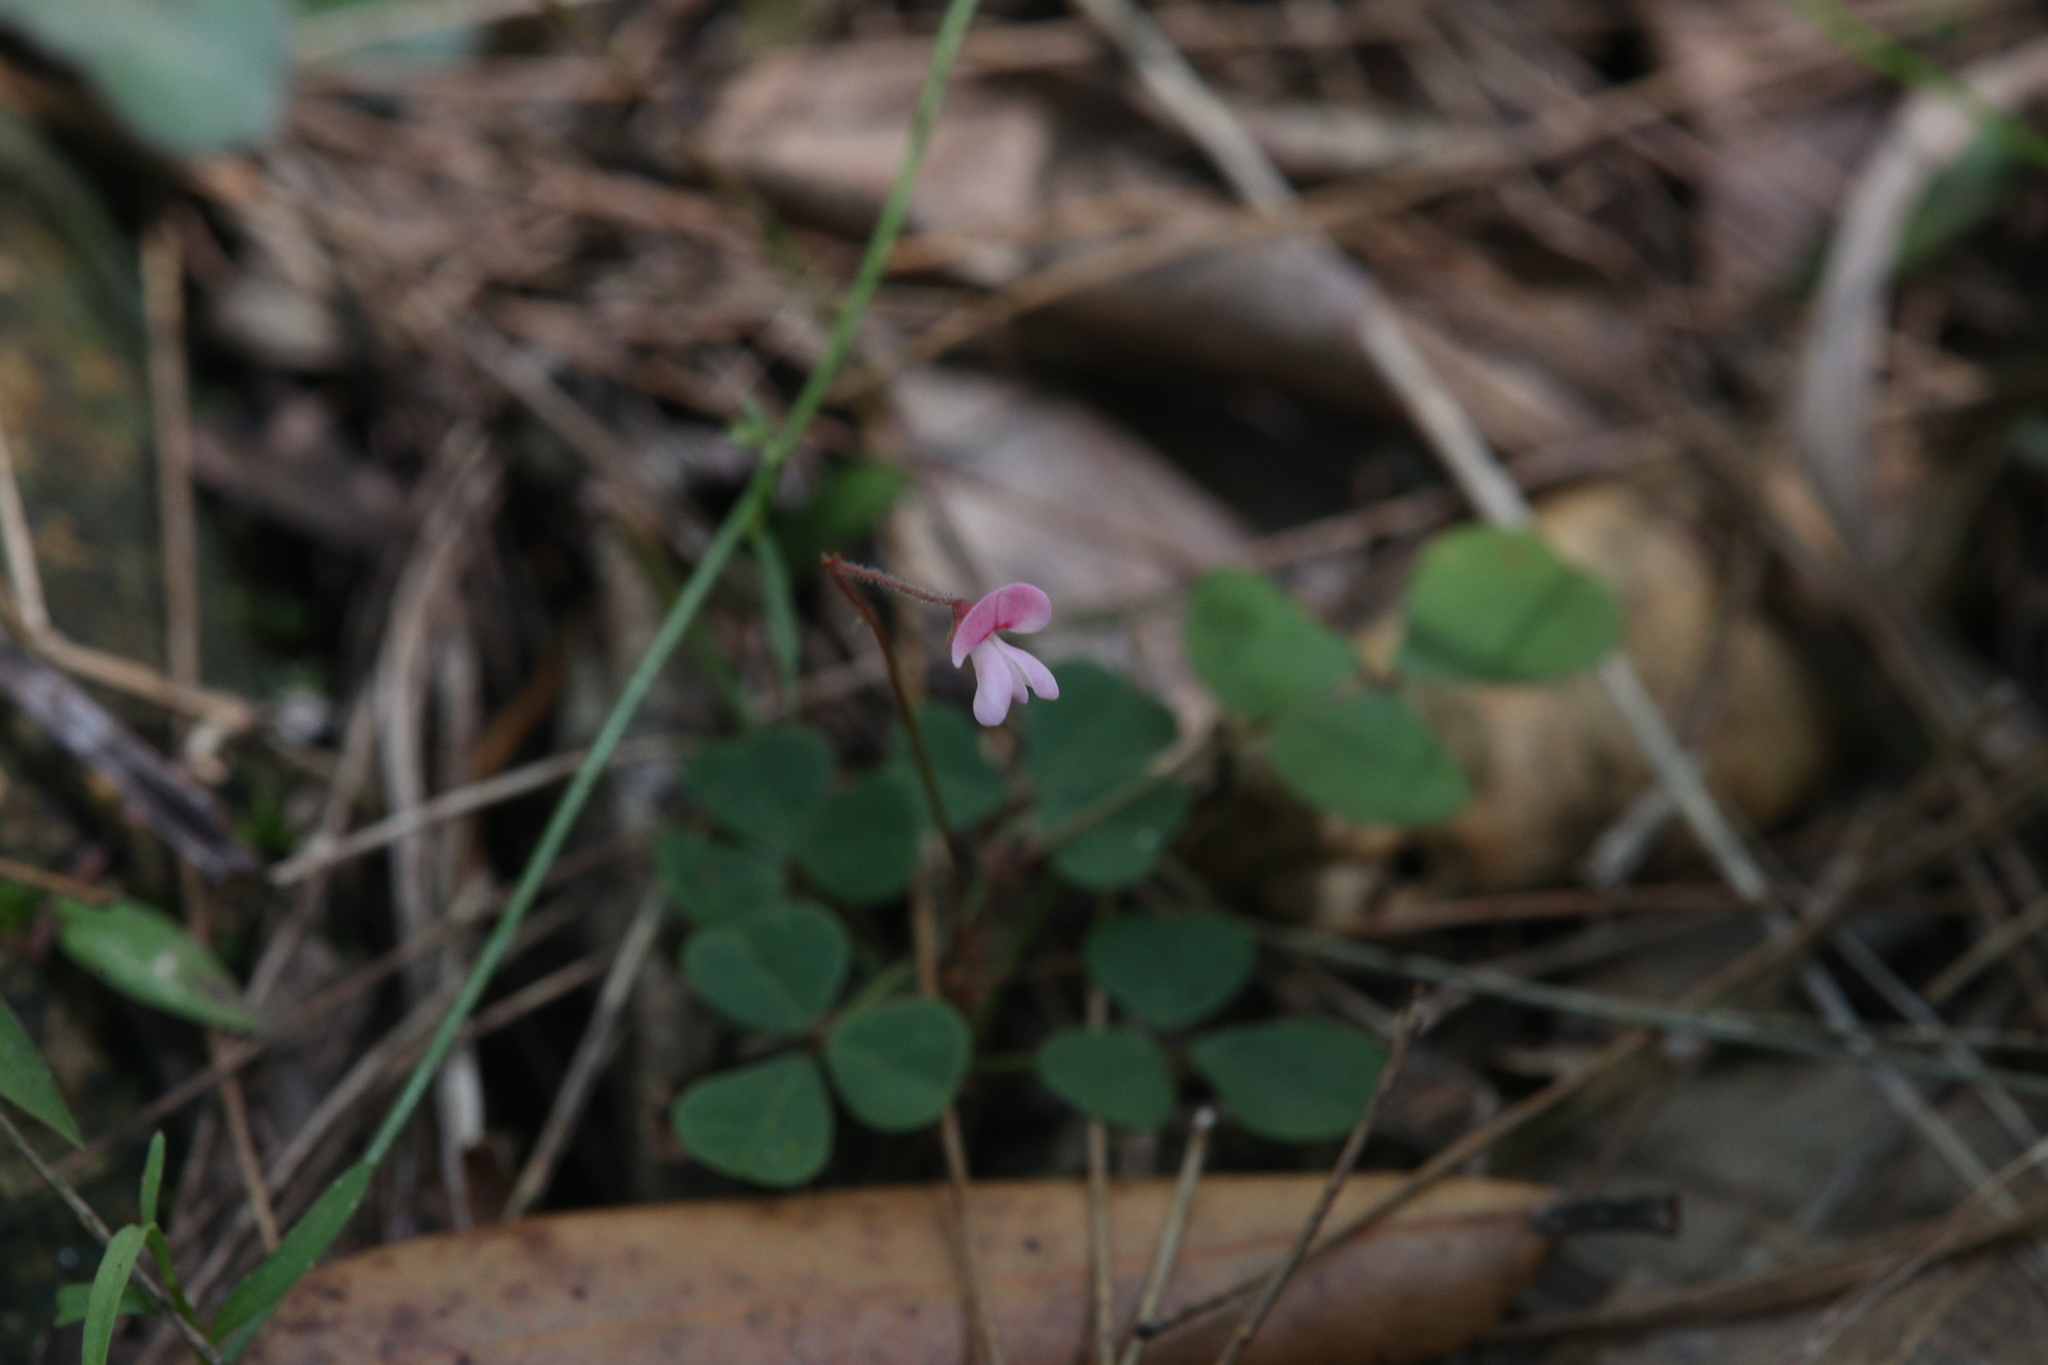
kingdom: Plantae
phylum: Tracheophyta
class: Magnoliopsida
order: Fabales
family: Fabaceae
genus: Pullenia
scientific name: Pullenia gunnii
